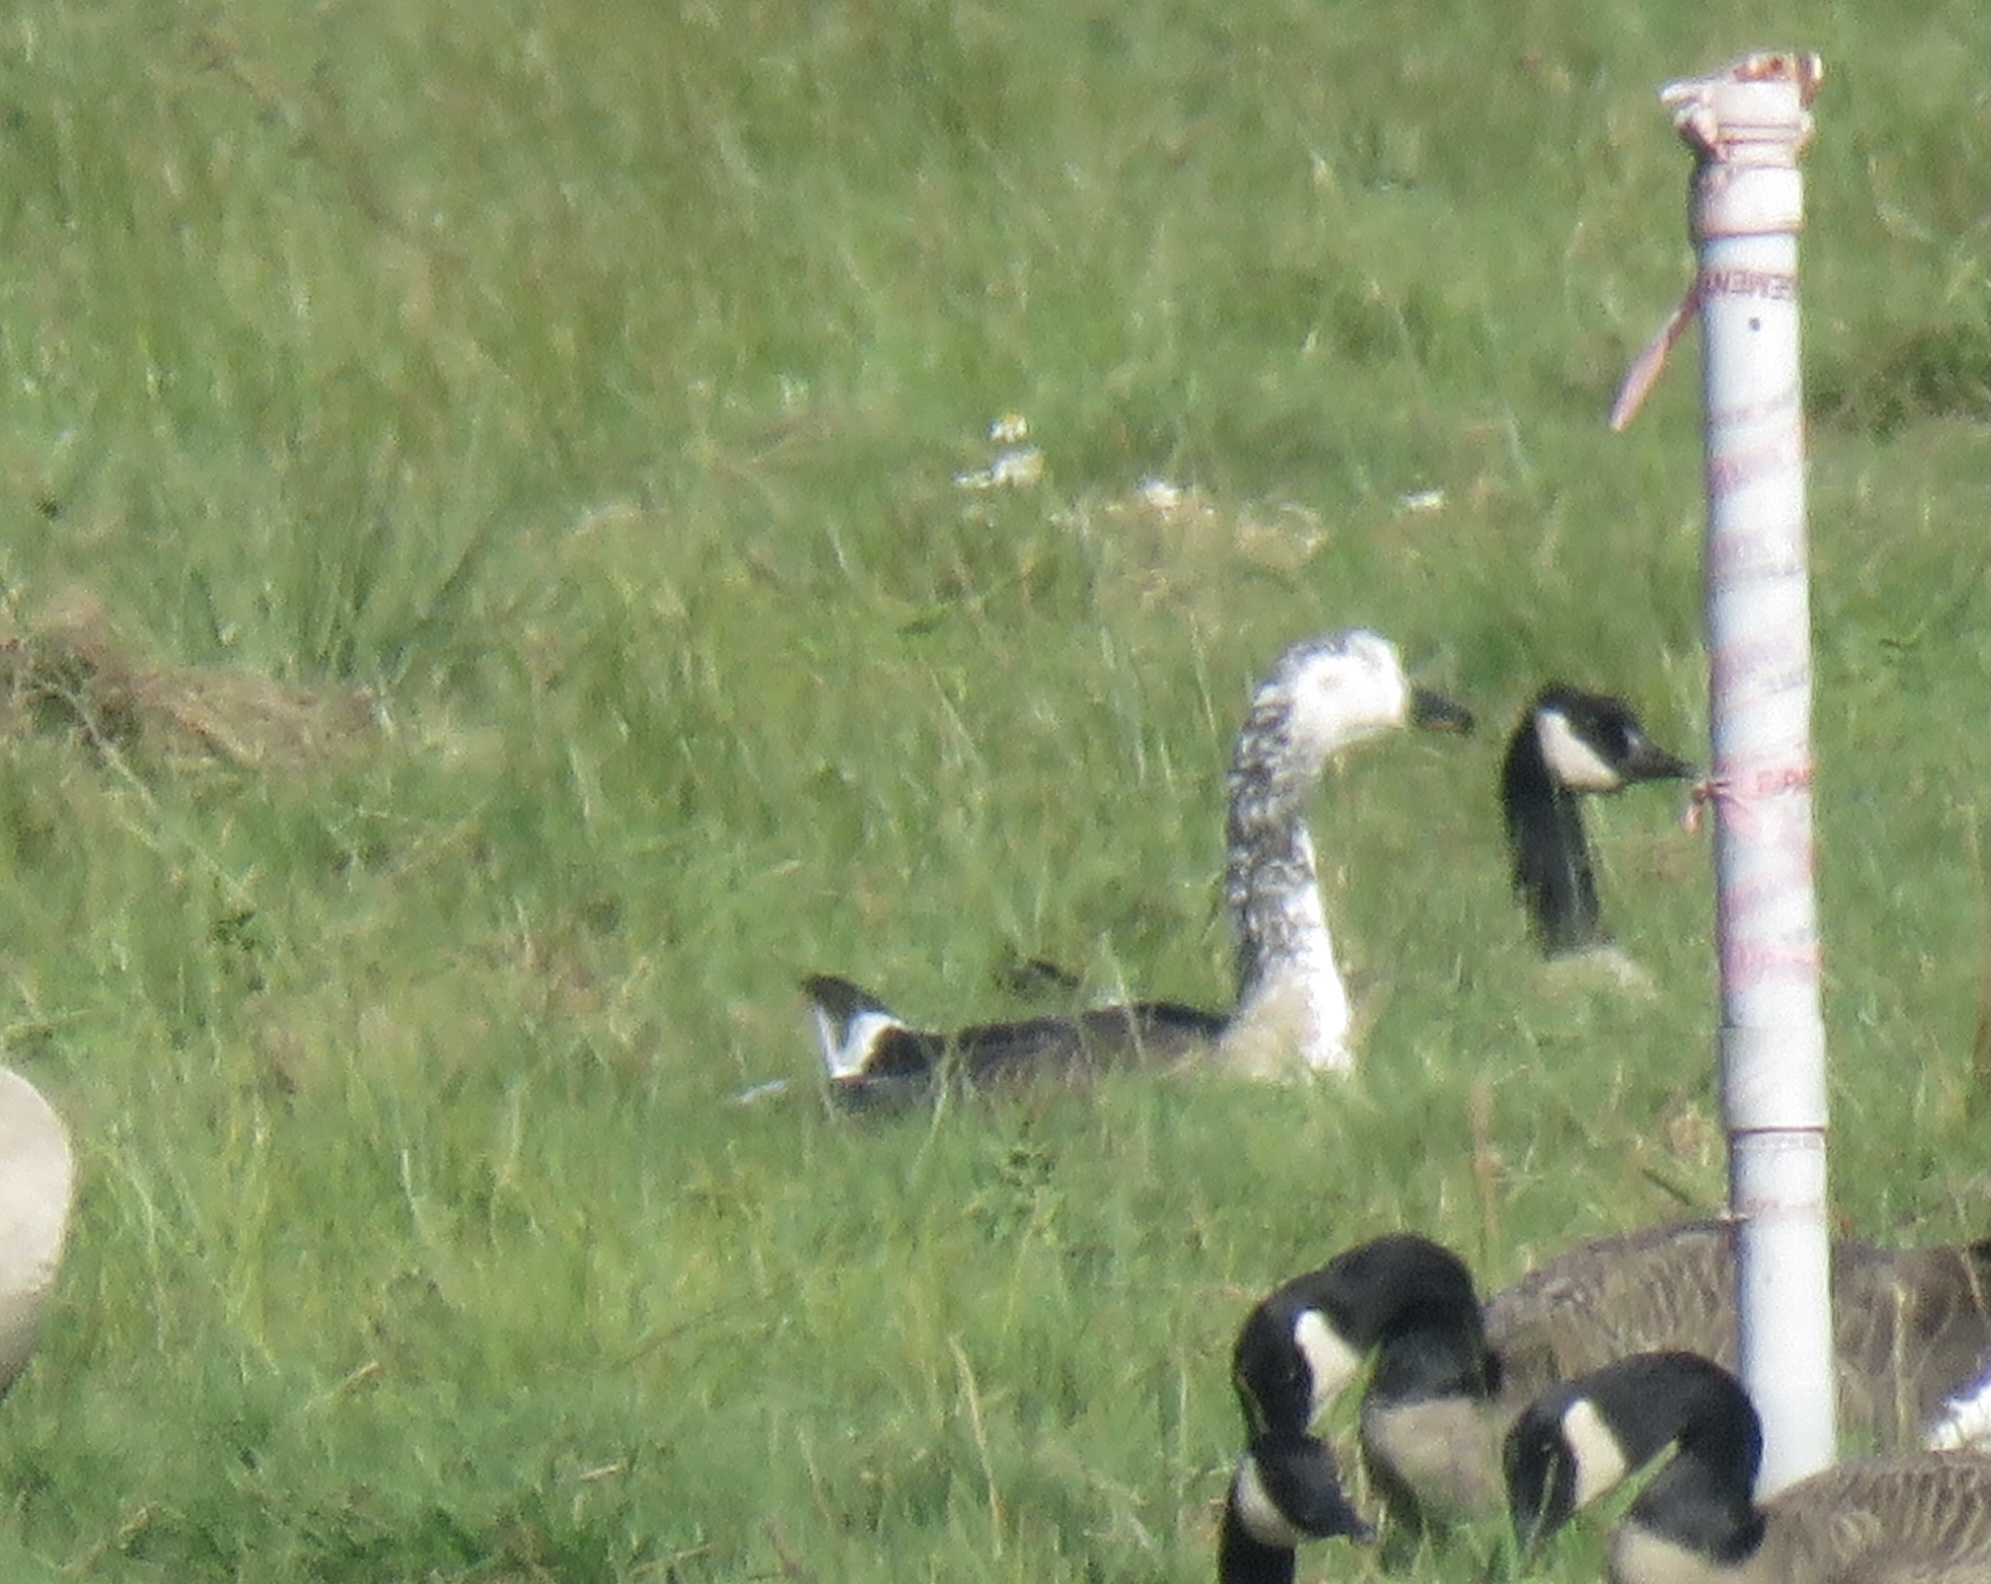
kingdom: Animalia
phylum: Chordata
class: Aves
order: Anseriformes
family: Anatidae
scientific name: Anatidae
